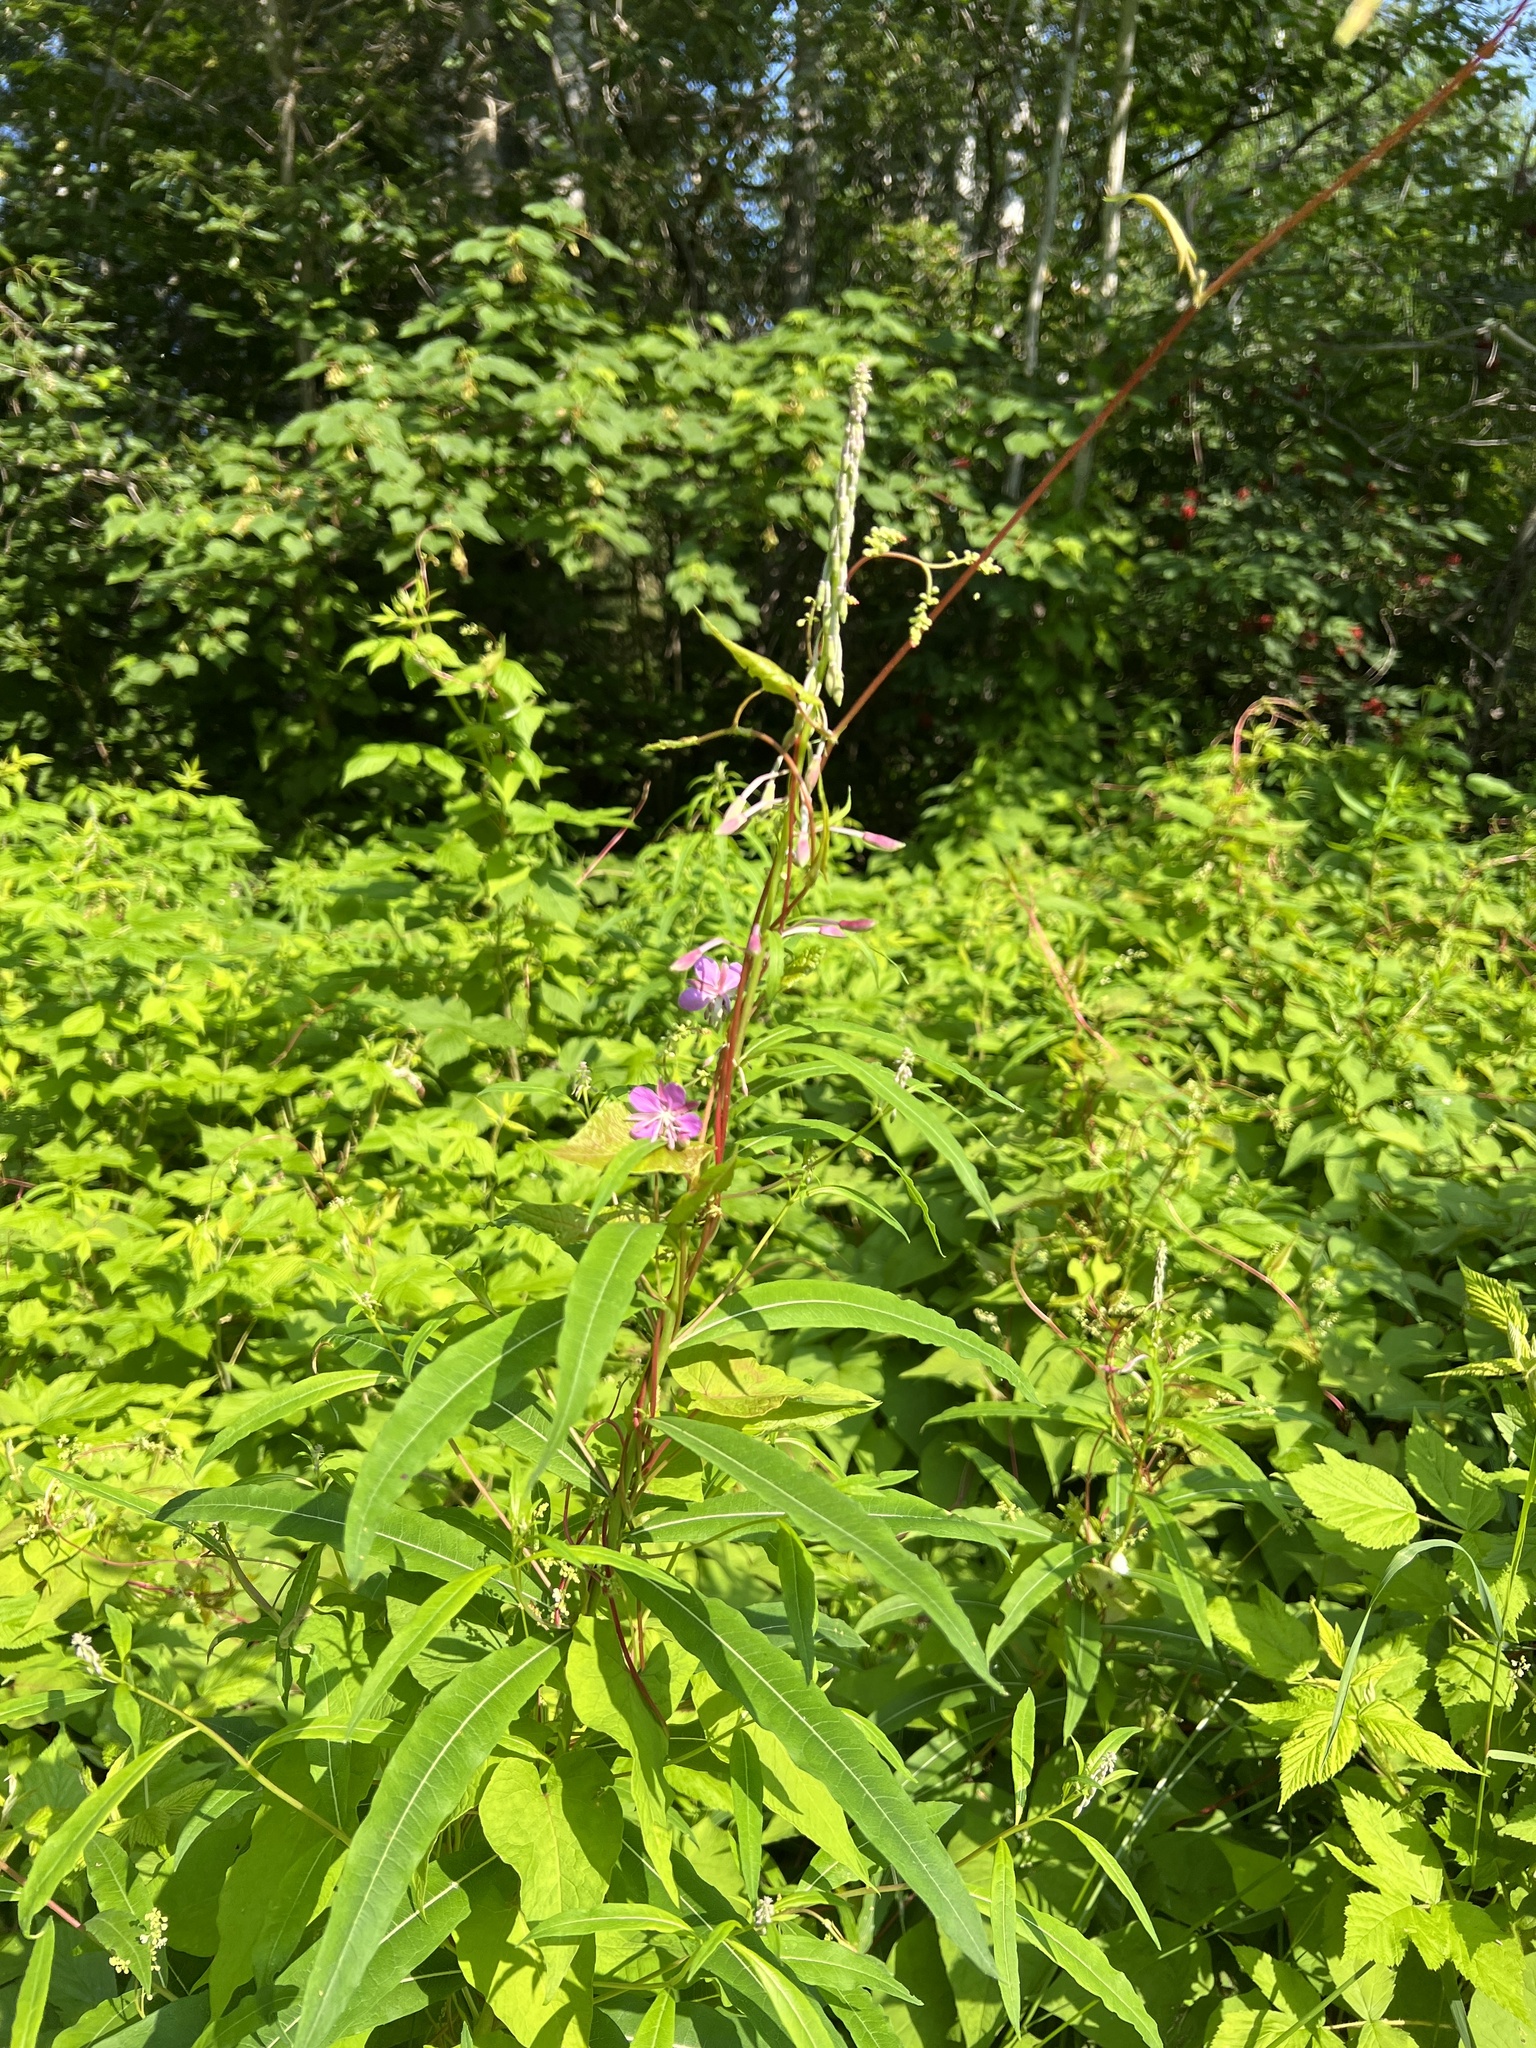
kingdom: Plantae
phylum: Tracheophyta
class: Magnoliopsida
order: Myrtales
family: Onagraceae
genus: Chamaenerion
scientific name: Chamaenerion angustifolium
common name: Fireweed
